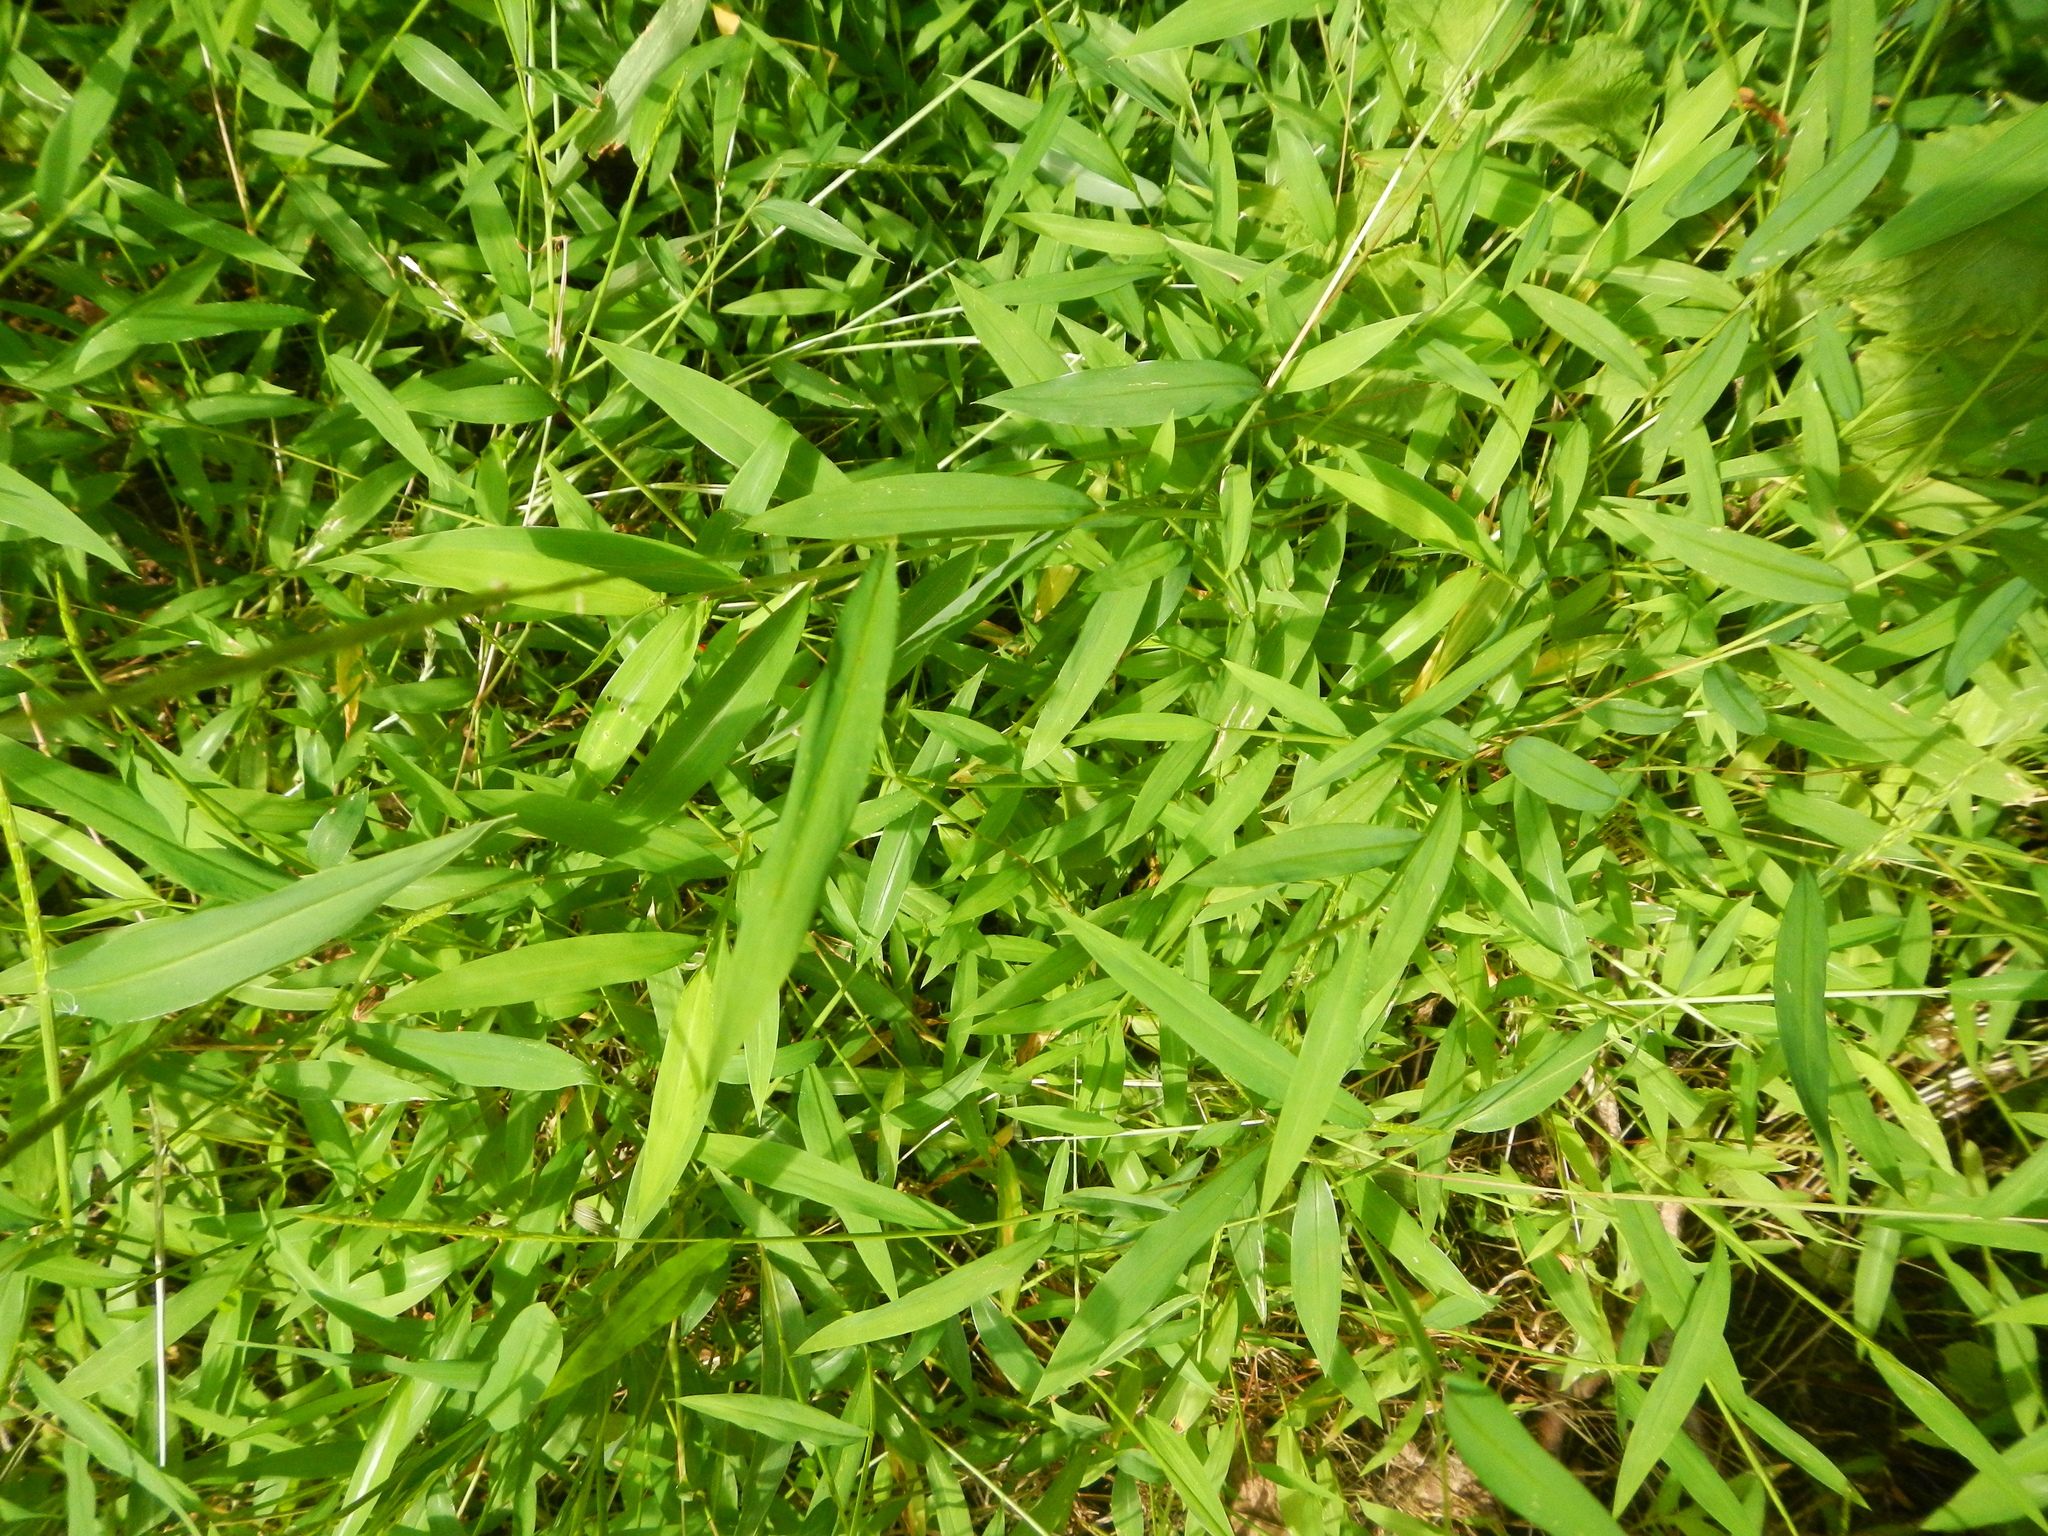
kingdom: Plantae
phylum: Tracheophyta
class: Liliopsida
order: Poales
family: Poaceae
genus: Microstegium
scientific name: Microstegium vimineum
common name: Japanese stiltgrass
